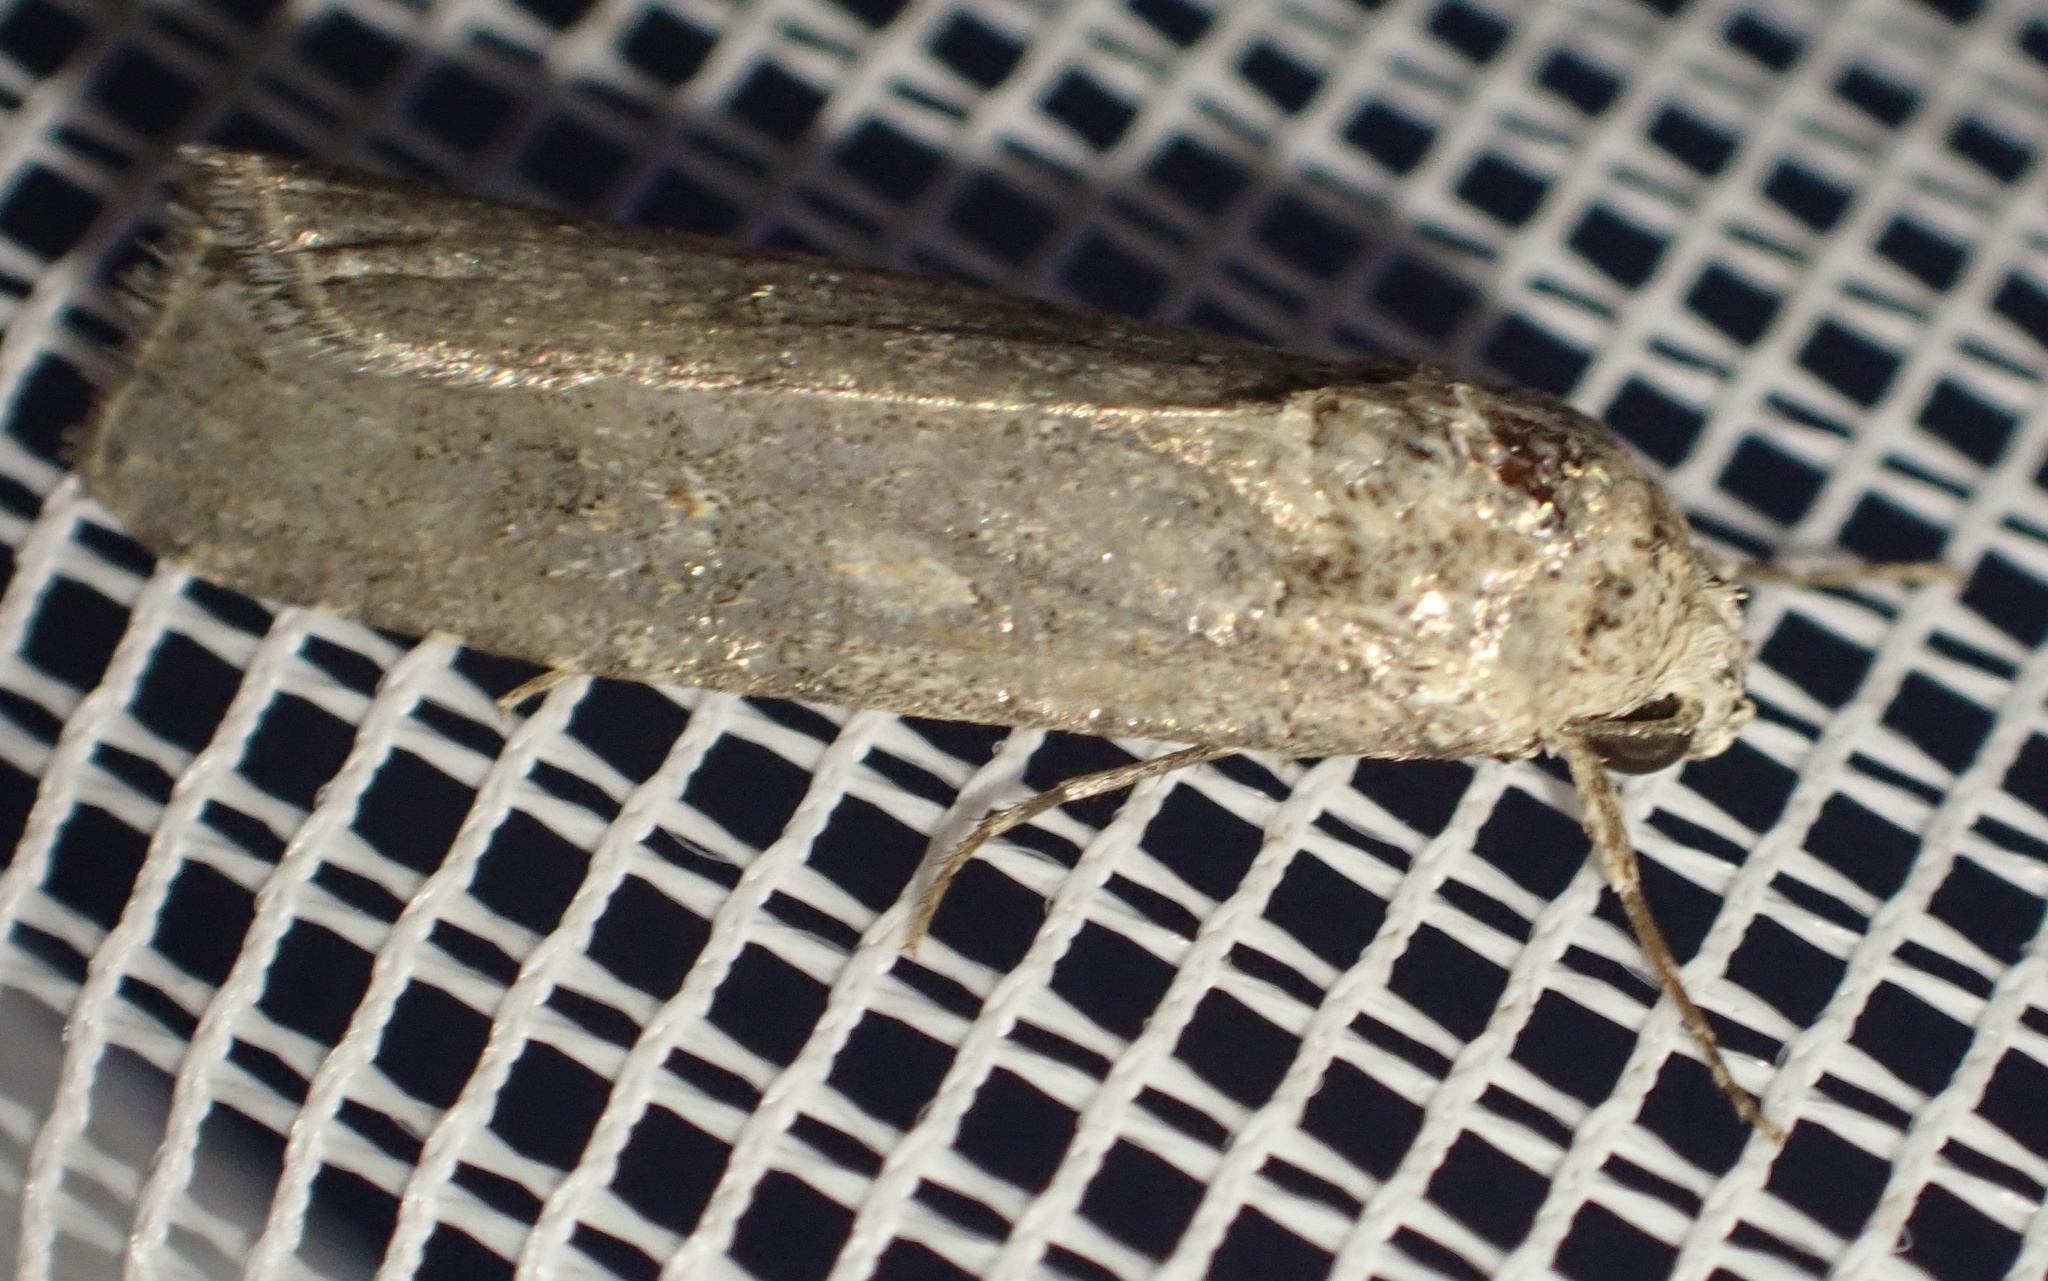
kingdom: Animalia
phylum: Arthropoda
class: Insecta
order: Lepidoptera
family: Noctuidae
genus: Spodoptera
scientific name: Spodoptera exigua
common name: Beet armyworm
